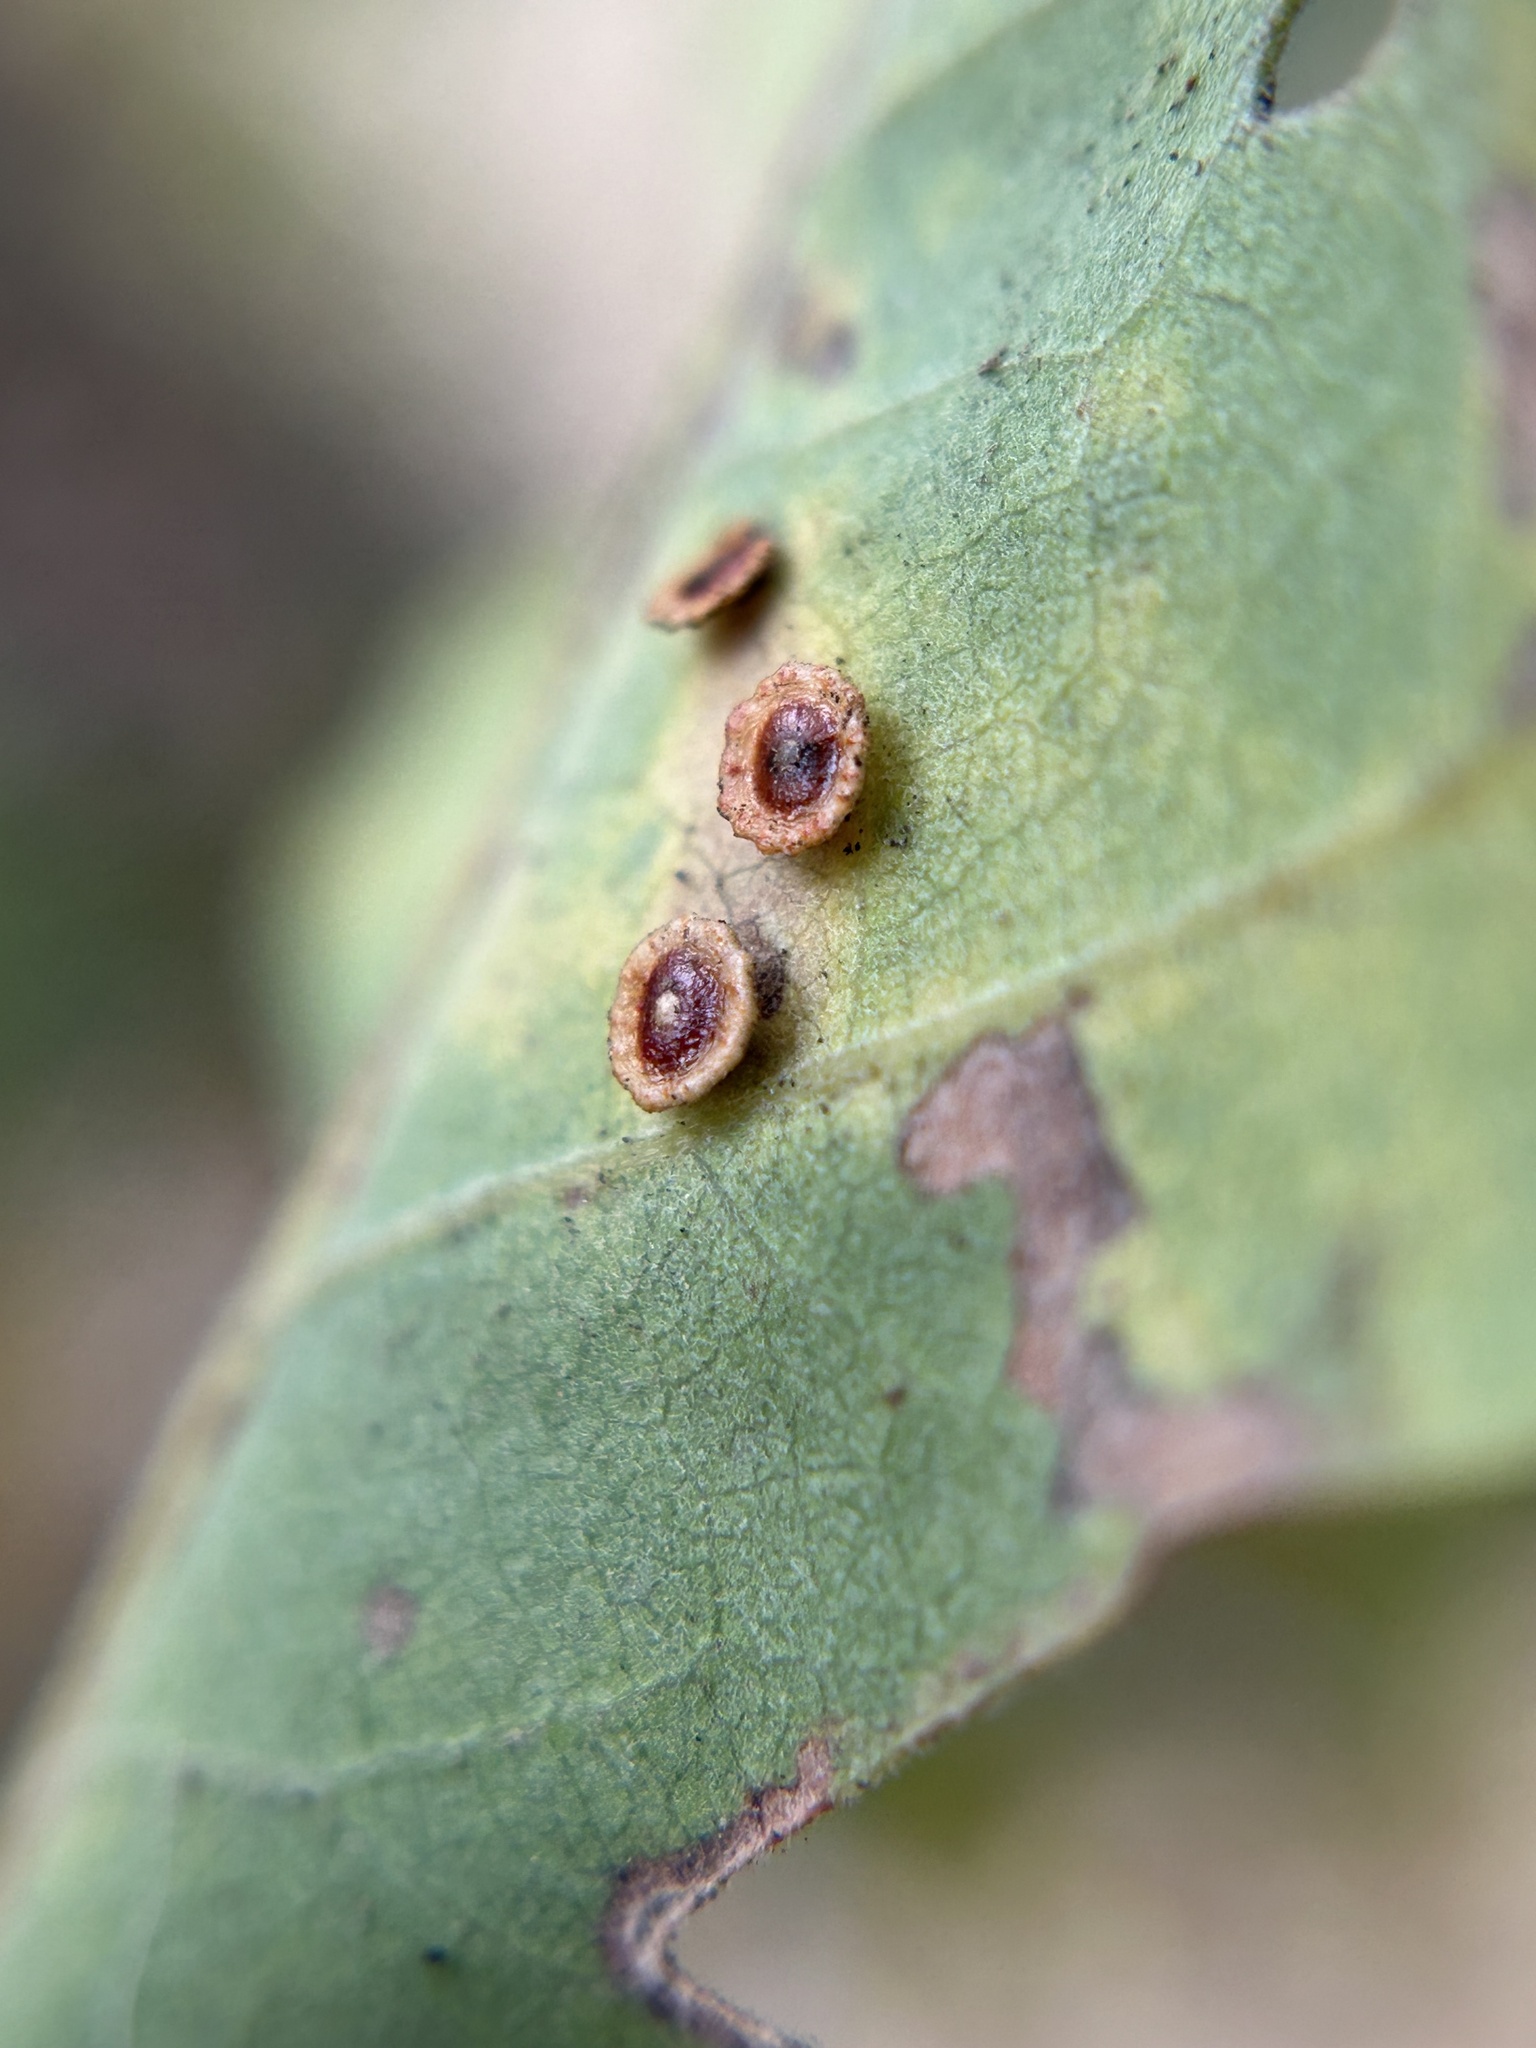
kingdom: Animalia
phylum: Arthropoda
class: Insecta
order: Hymenoptera
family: Cynipidae
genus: Andricus
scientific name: Andricus
